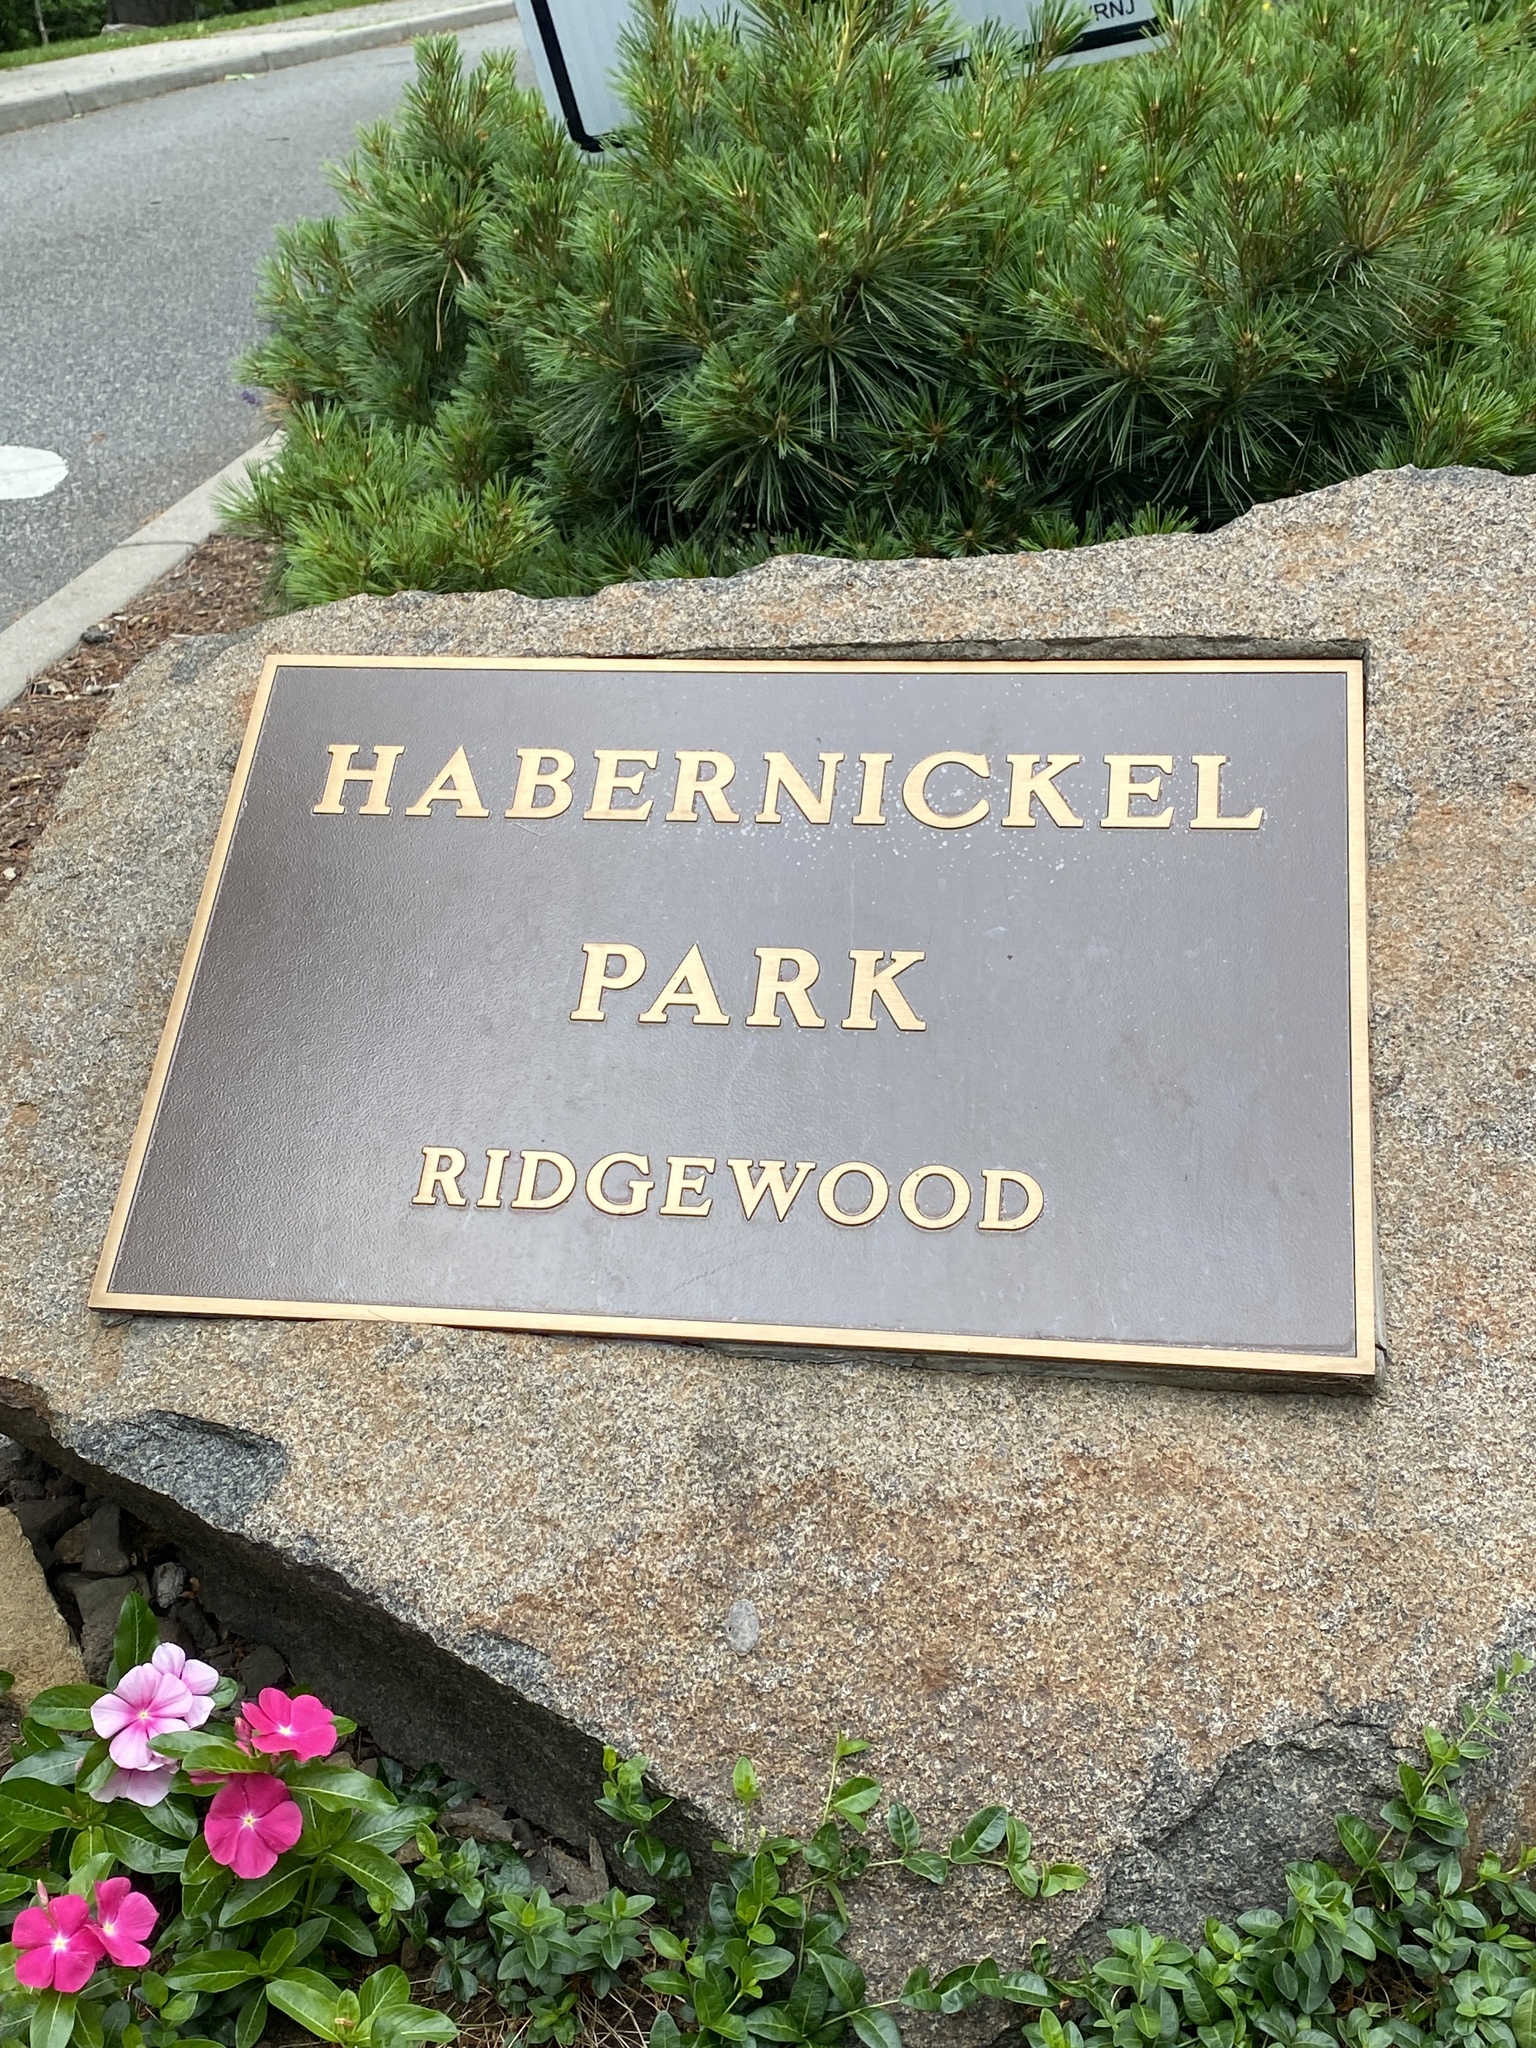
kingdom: Plantae
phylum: Tracheophyta
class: Magnoliopsida
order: Fabales
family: Fabaceae
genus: Gleditsia
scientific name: Gleditsia triacanthos
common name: Common honeylocust
